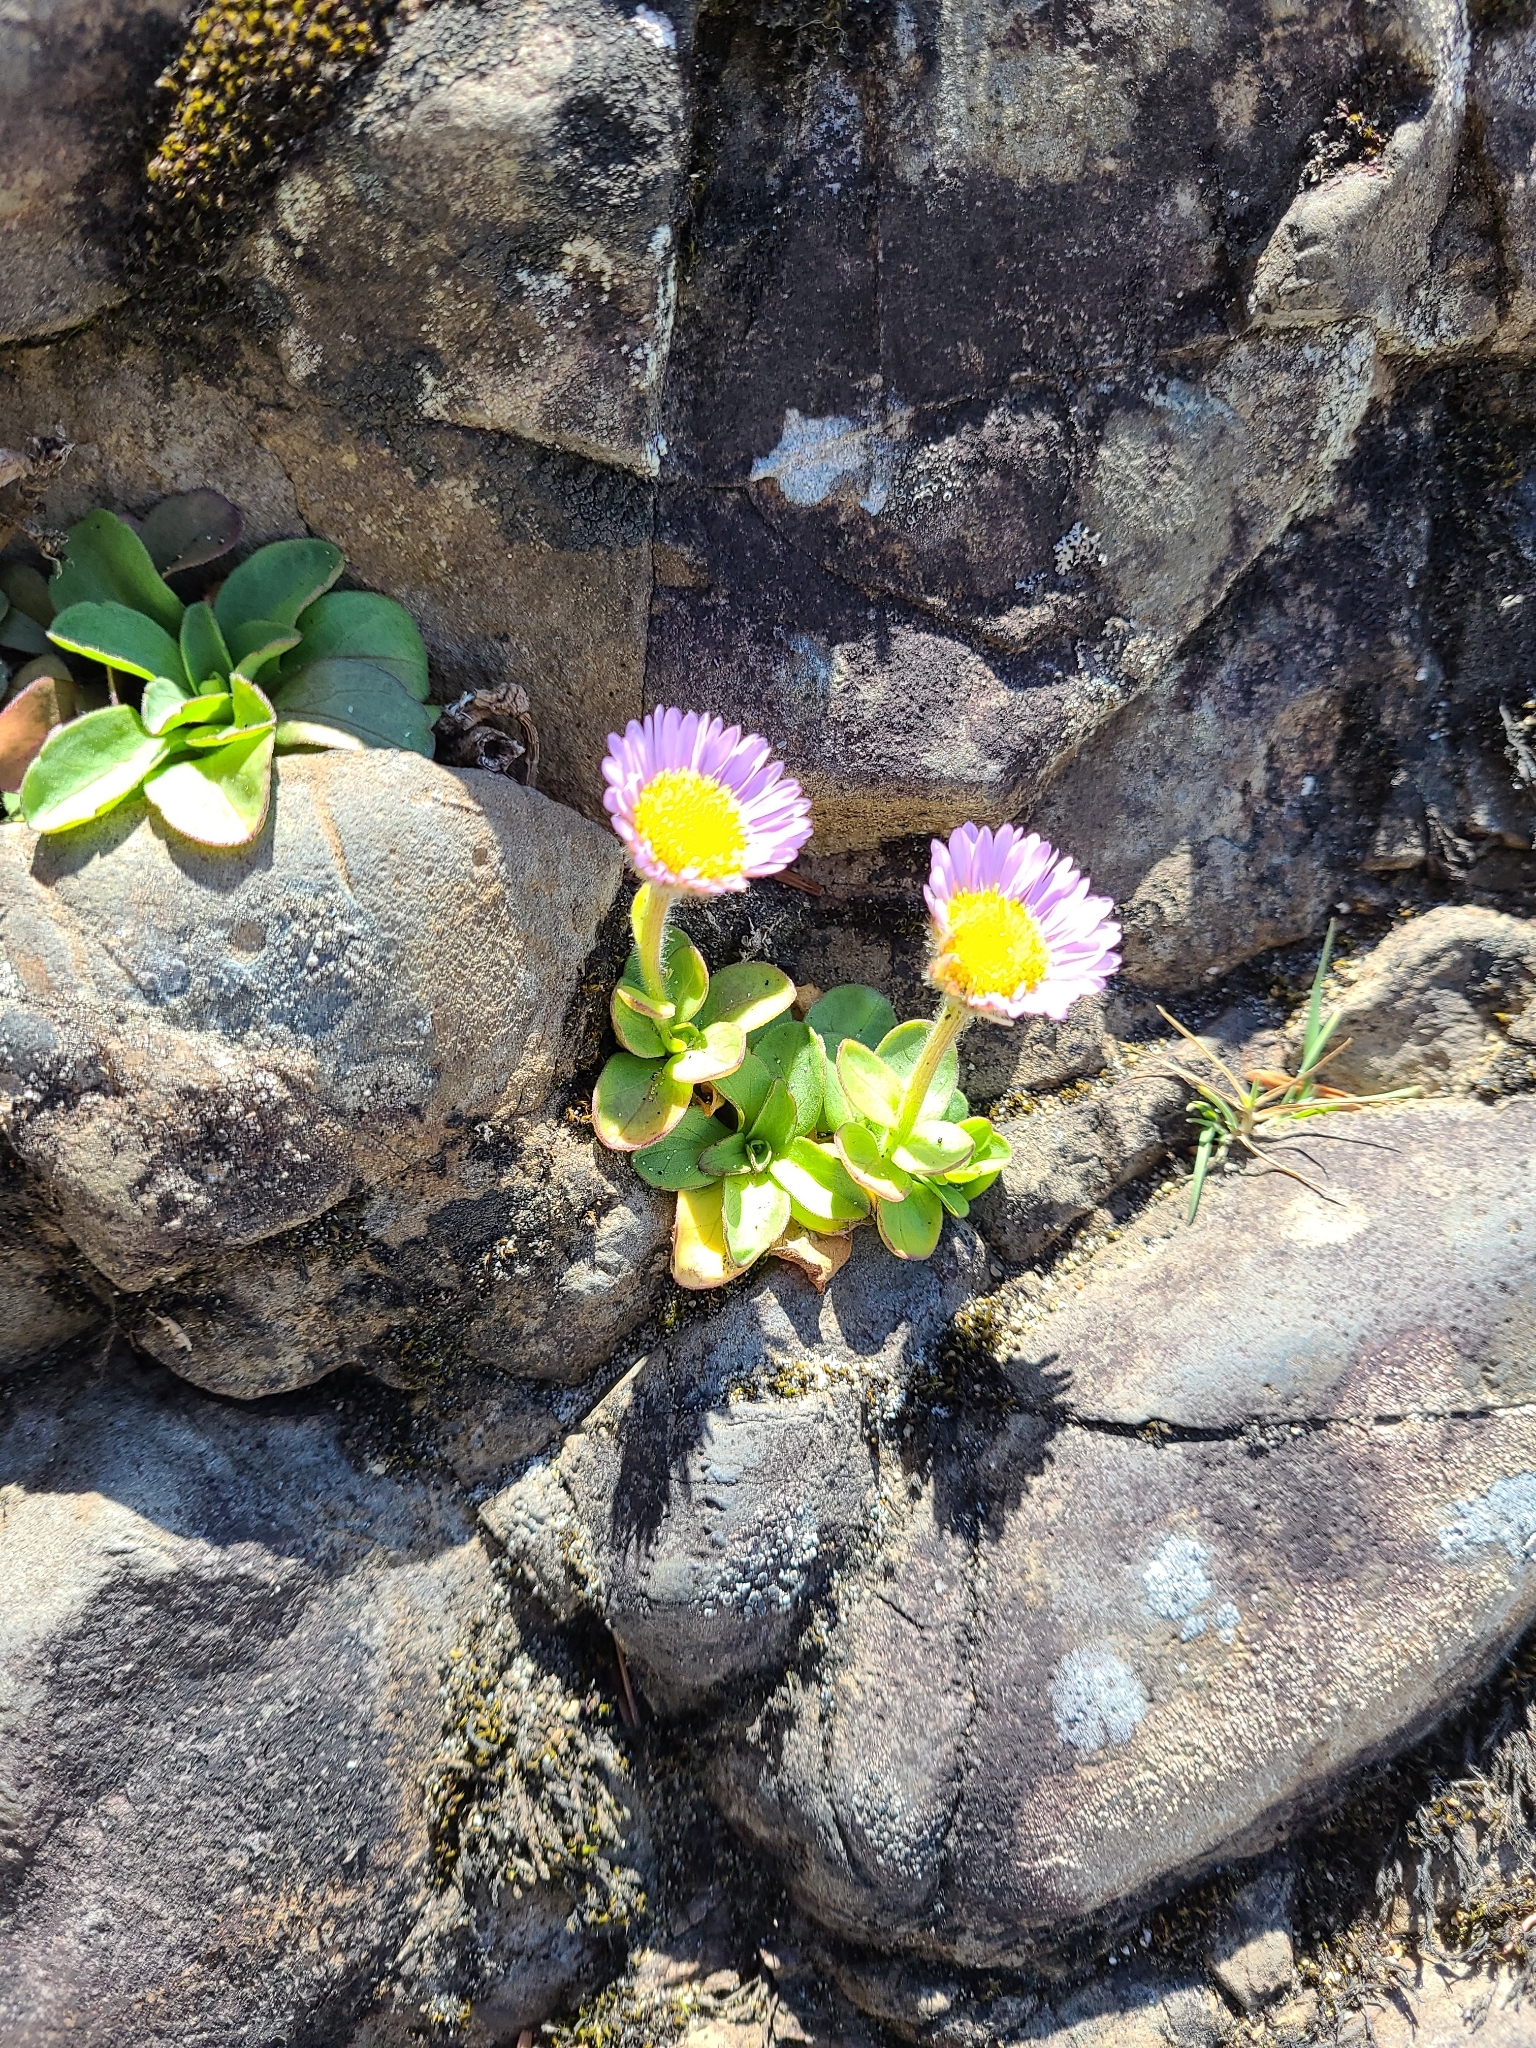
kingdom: Plantae
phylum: Tracheophyta
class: Magnoliopsida
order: Asterales
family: Asteraceae
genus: Erigeron
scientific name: Erigeron glaucus
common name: Seaside daisy
